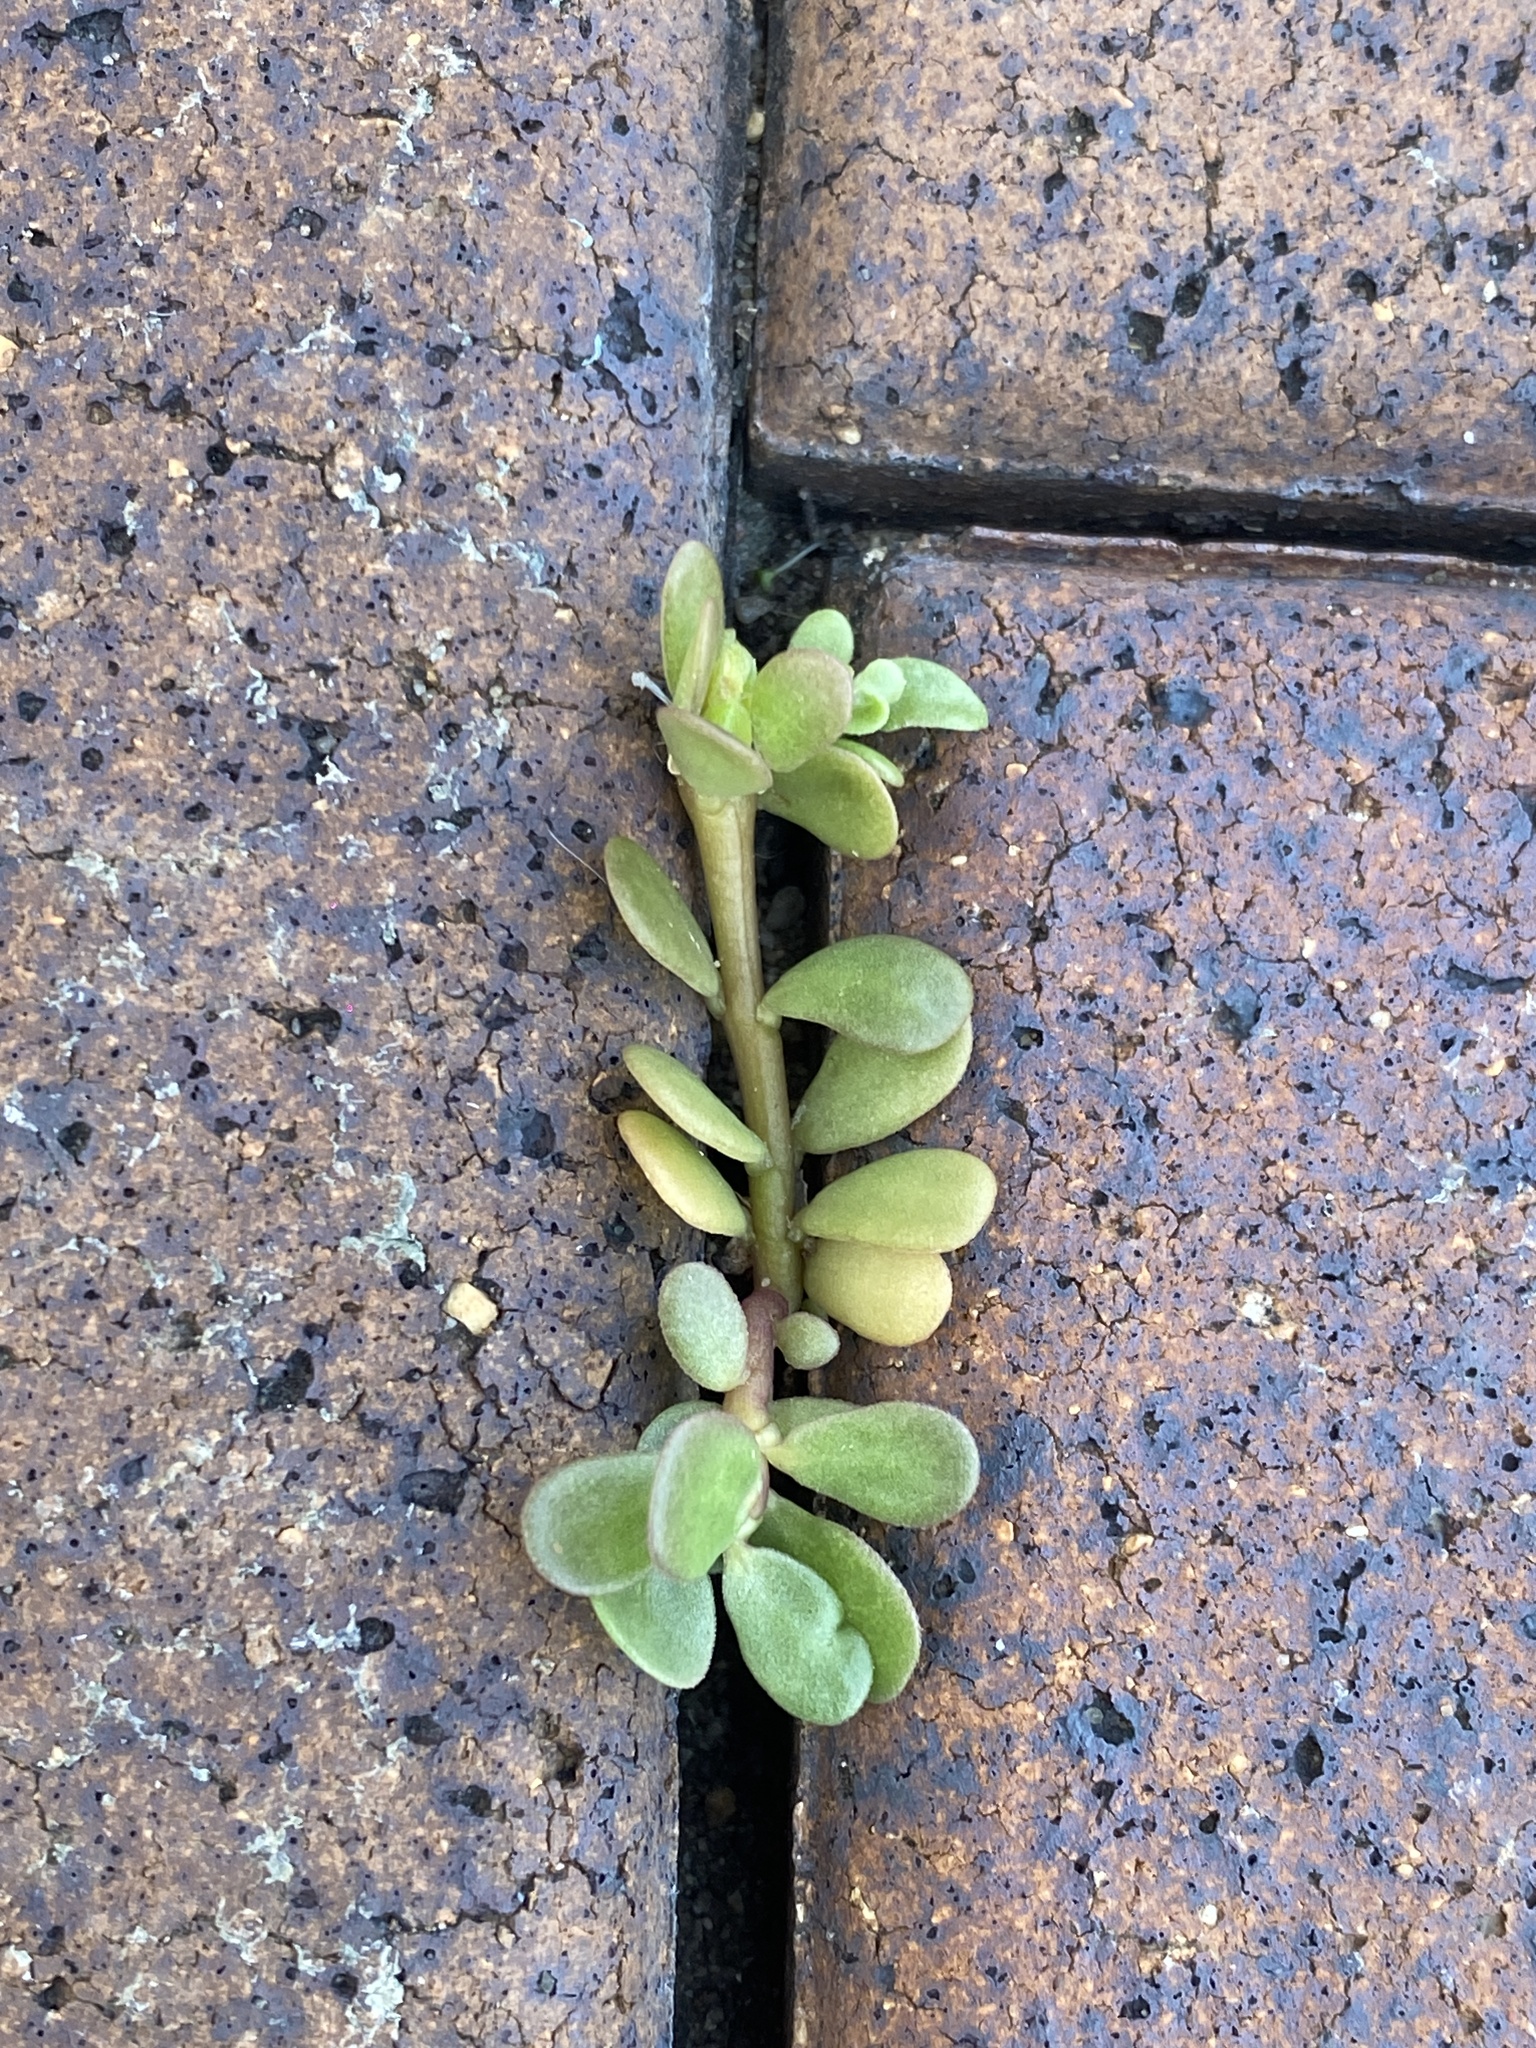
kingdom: Plantae
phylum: Tracheophyta
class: Magnoliopsida
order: Caryophyllales
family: Portulacaceae
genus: Portulaca
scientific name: Portulaca oleracea
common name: Common purslane
